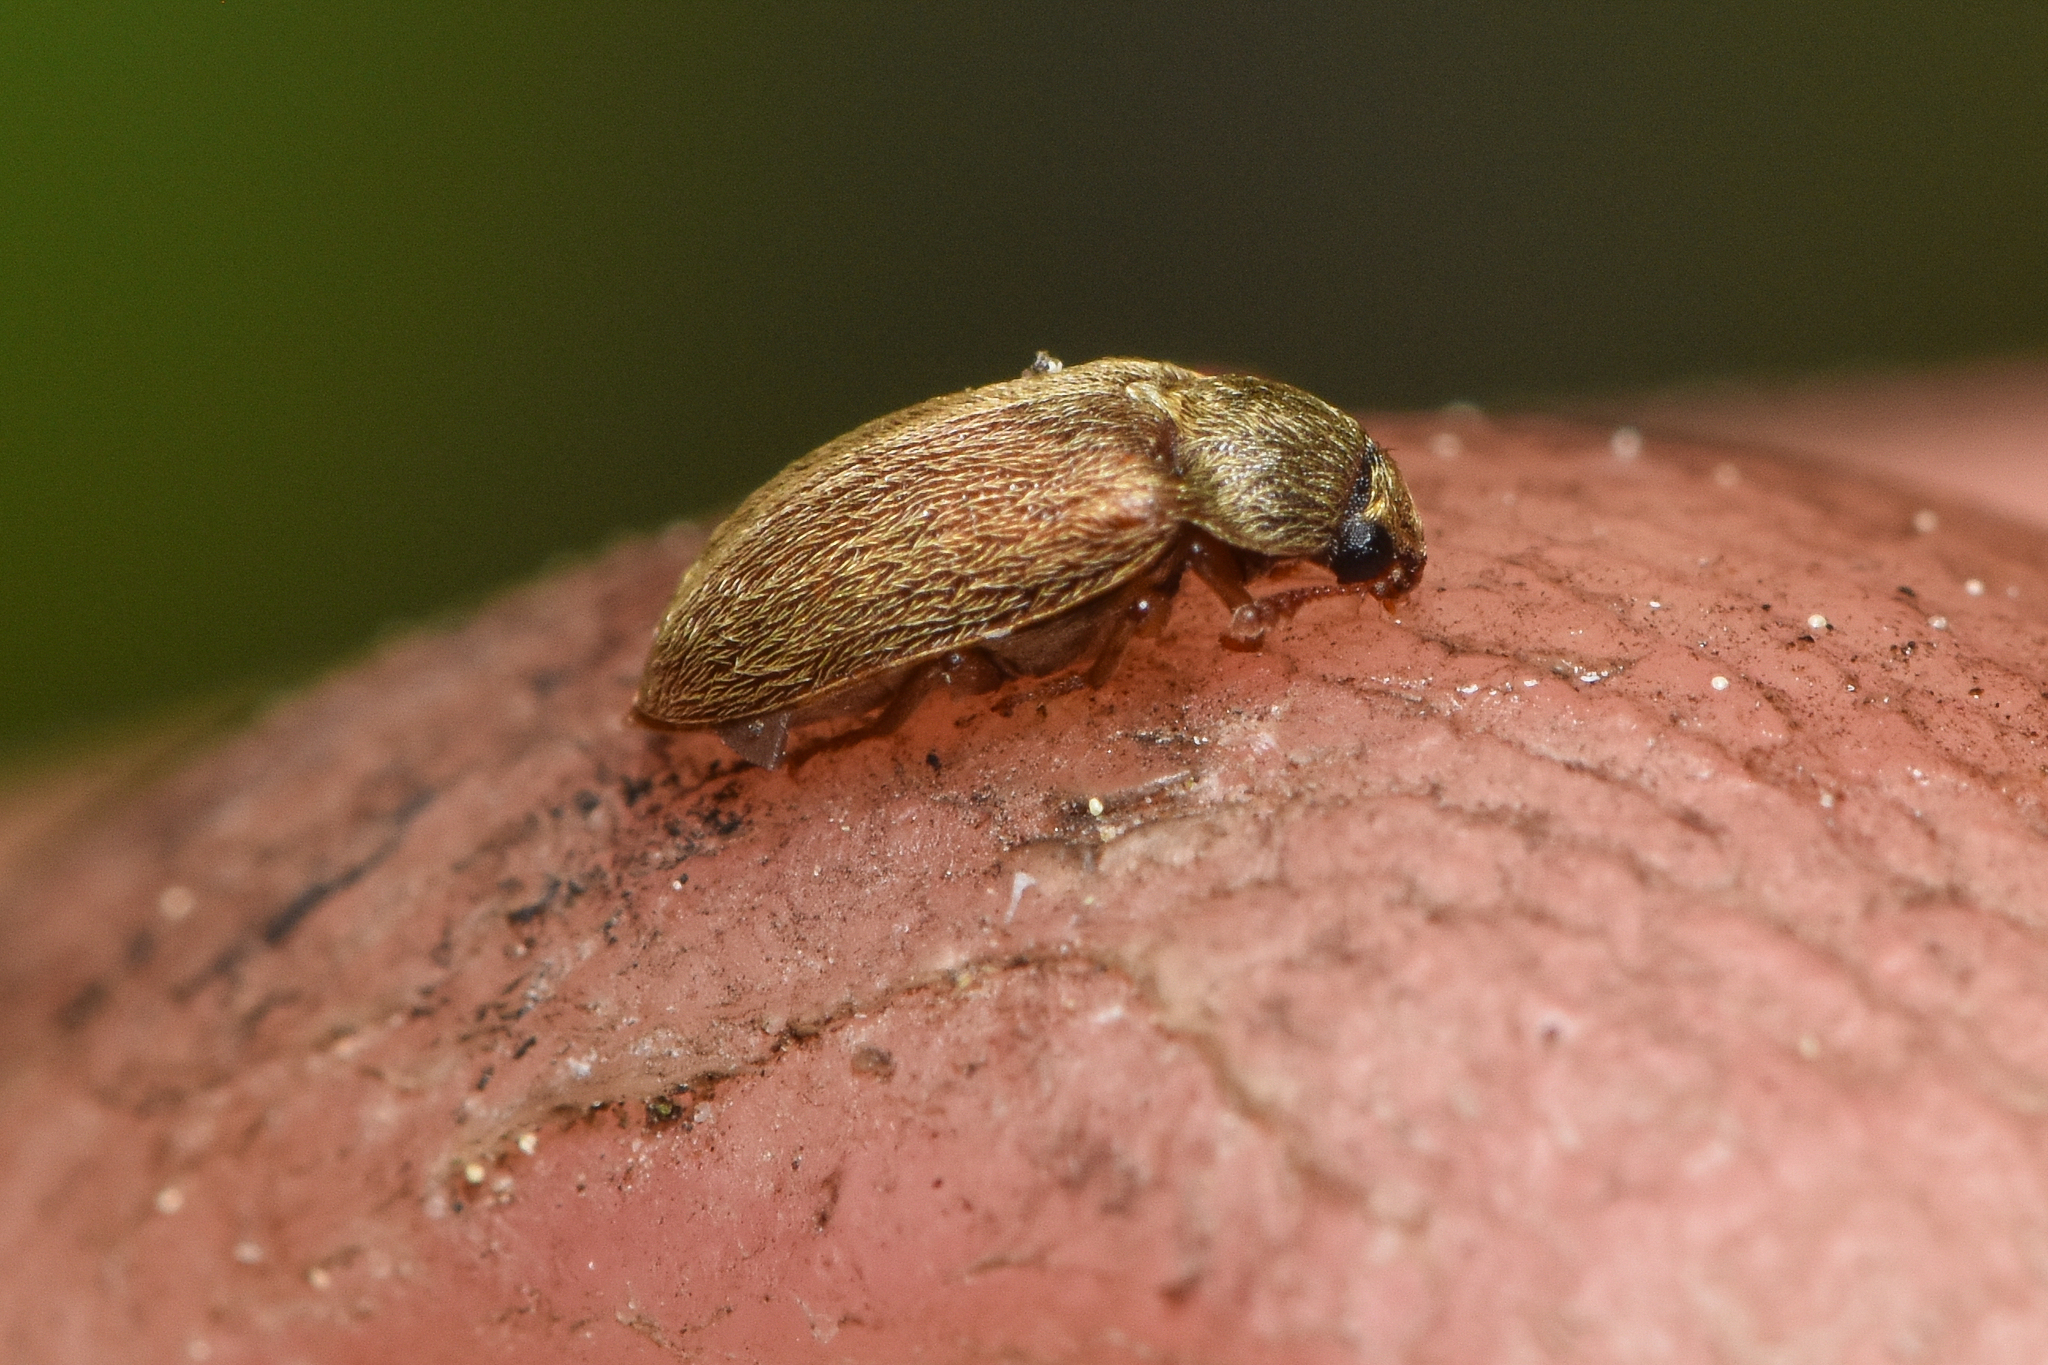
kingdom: Animalia
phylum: Arthropoda
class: Insecta
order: Coleoptera
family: Byturidae
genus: Byturus
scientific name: Byturus unicolor
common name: Raspberry fruitworm beetle
